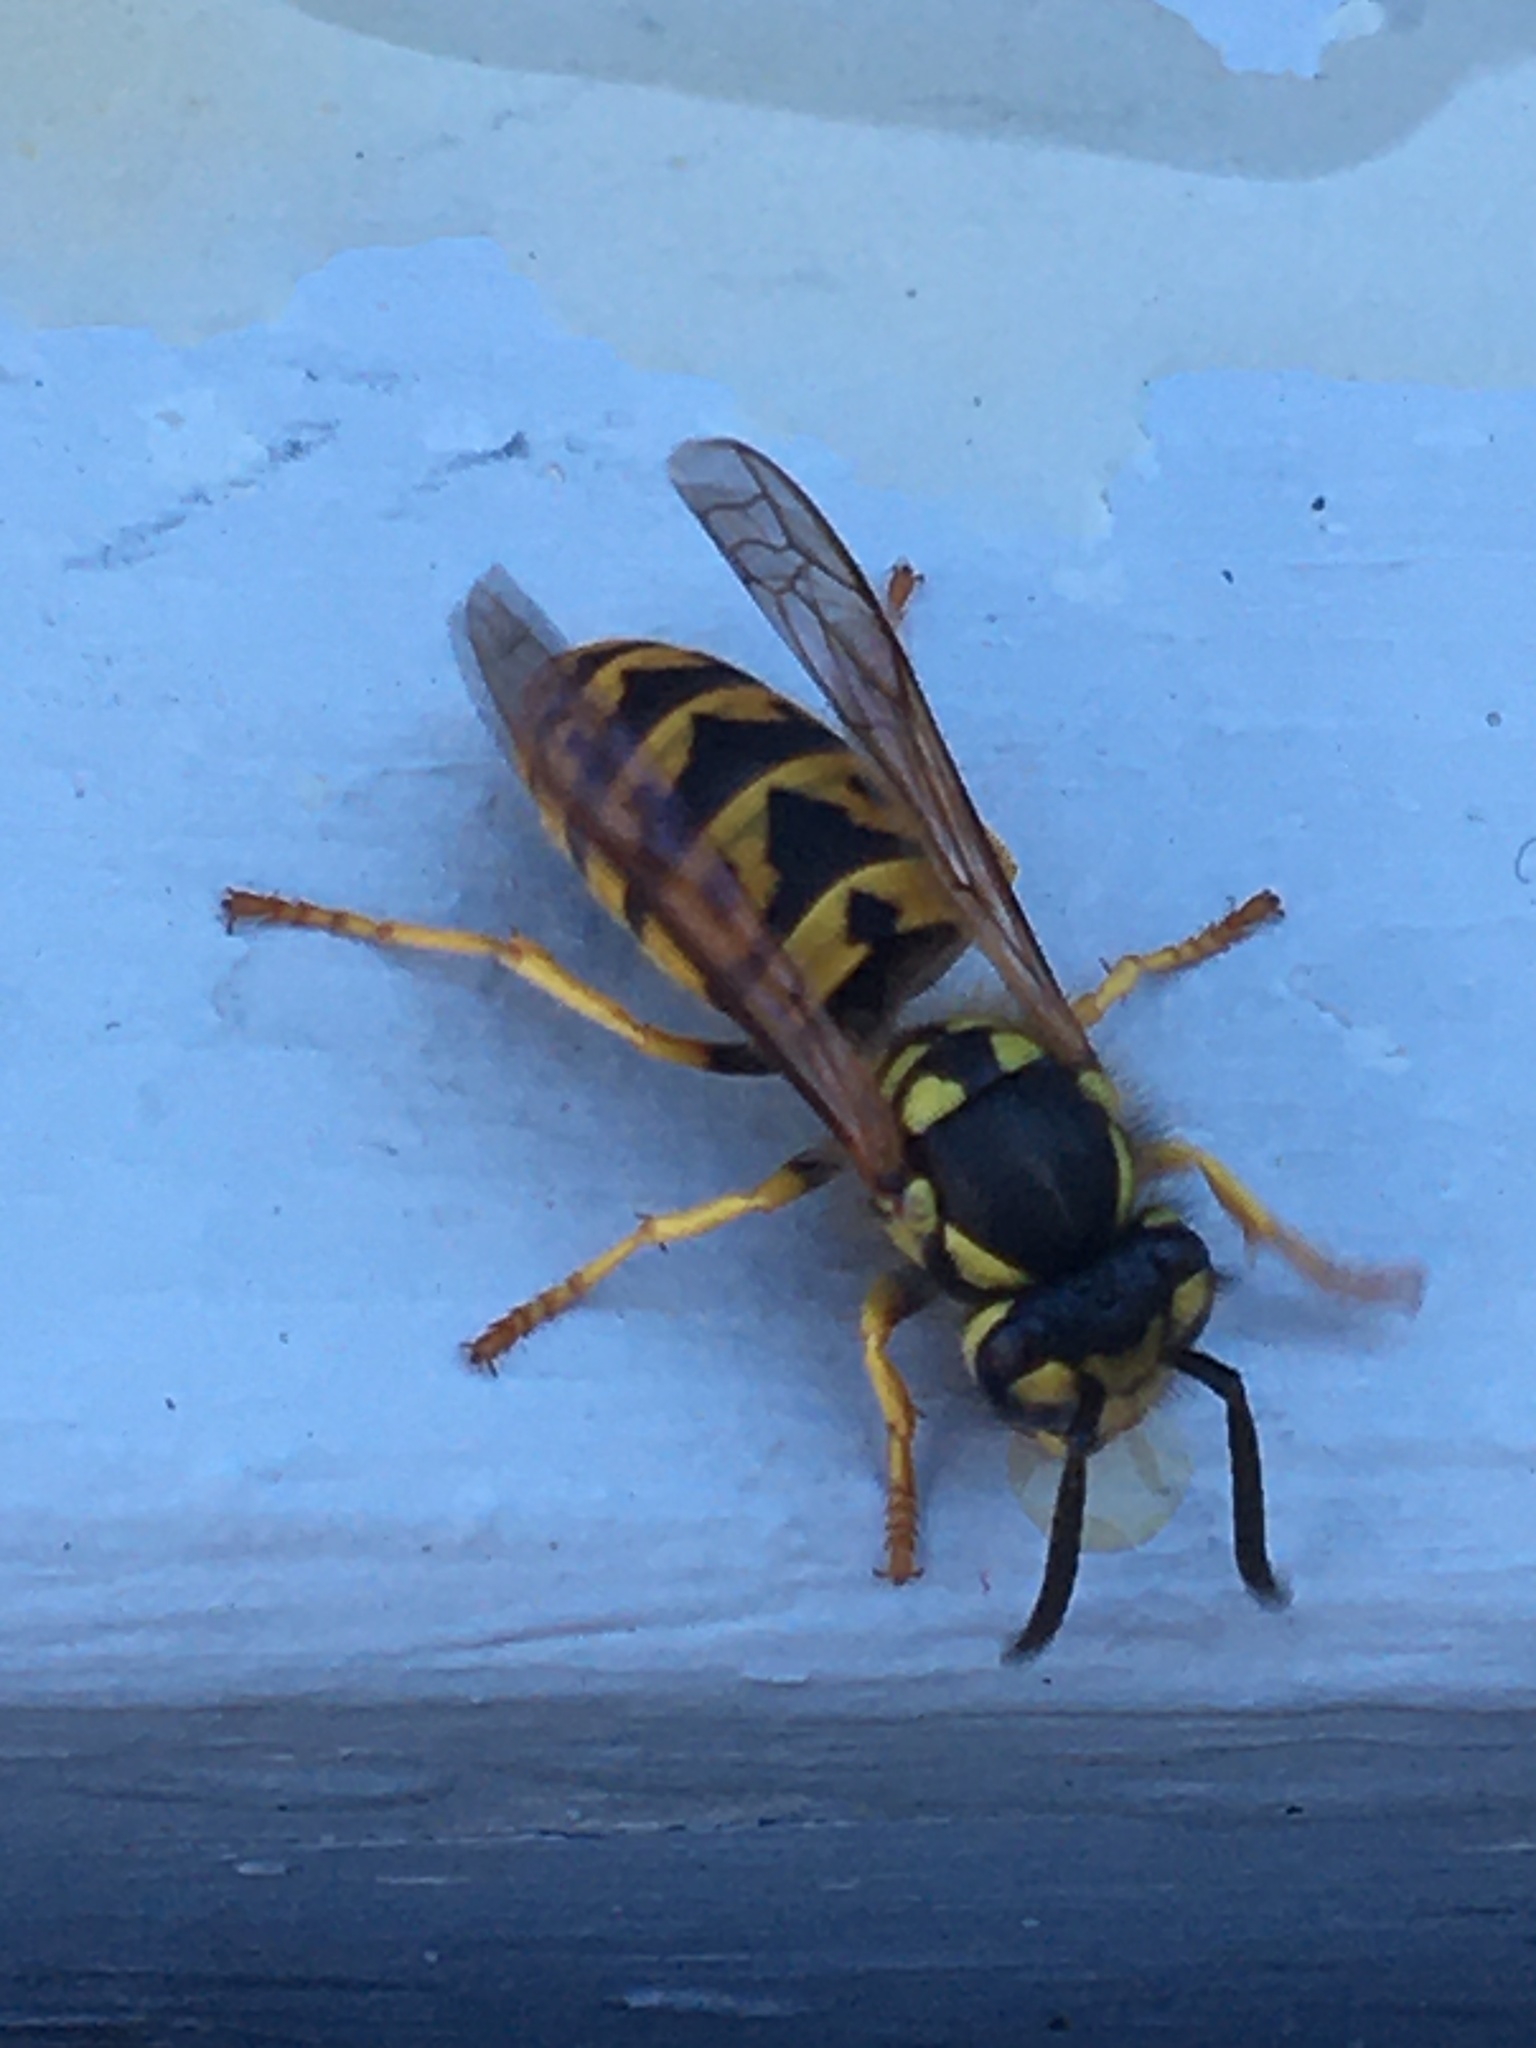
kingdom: Animalia
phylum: Arthropoda
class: Insecta
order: Hymenoptera
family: Vespidae
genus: Vespula
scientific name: Vespula germanica
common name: German wasp
